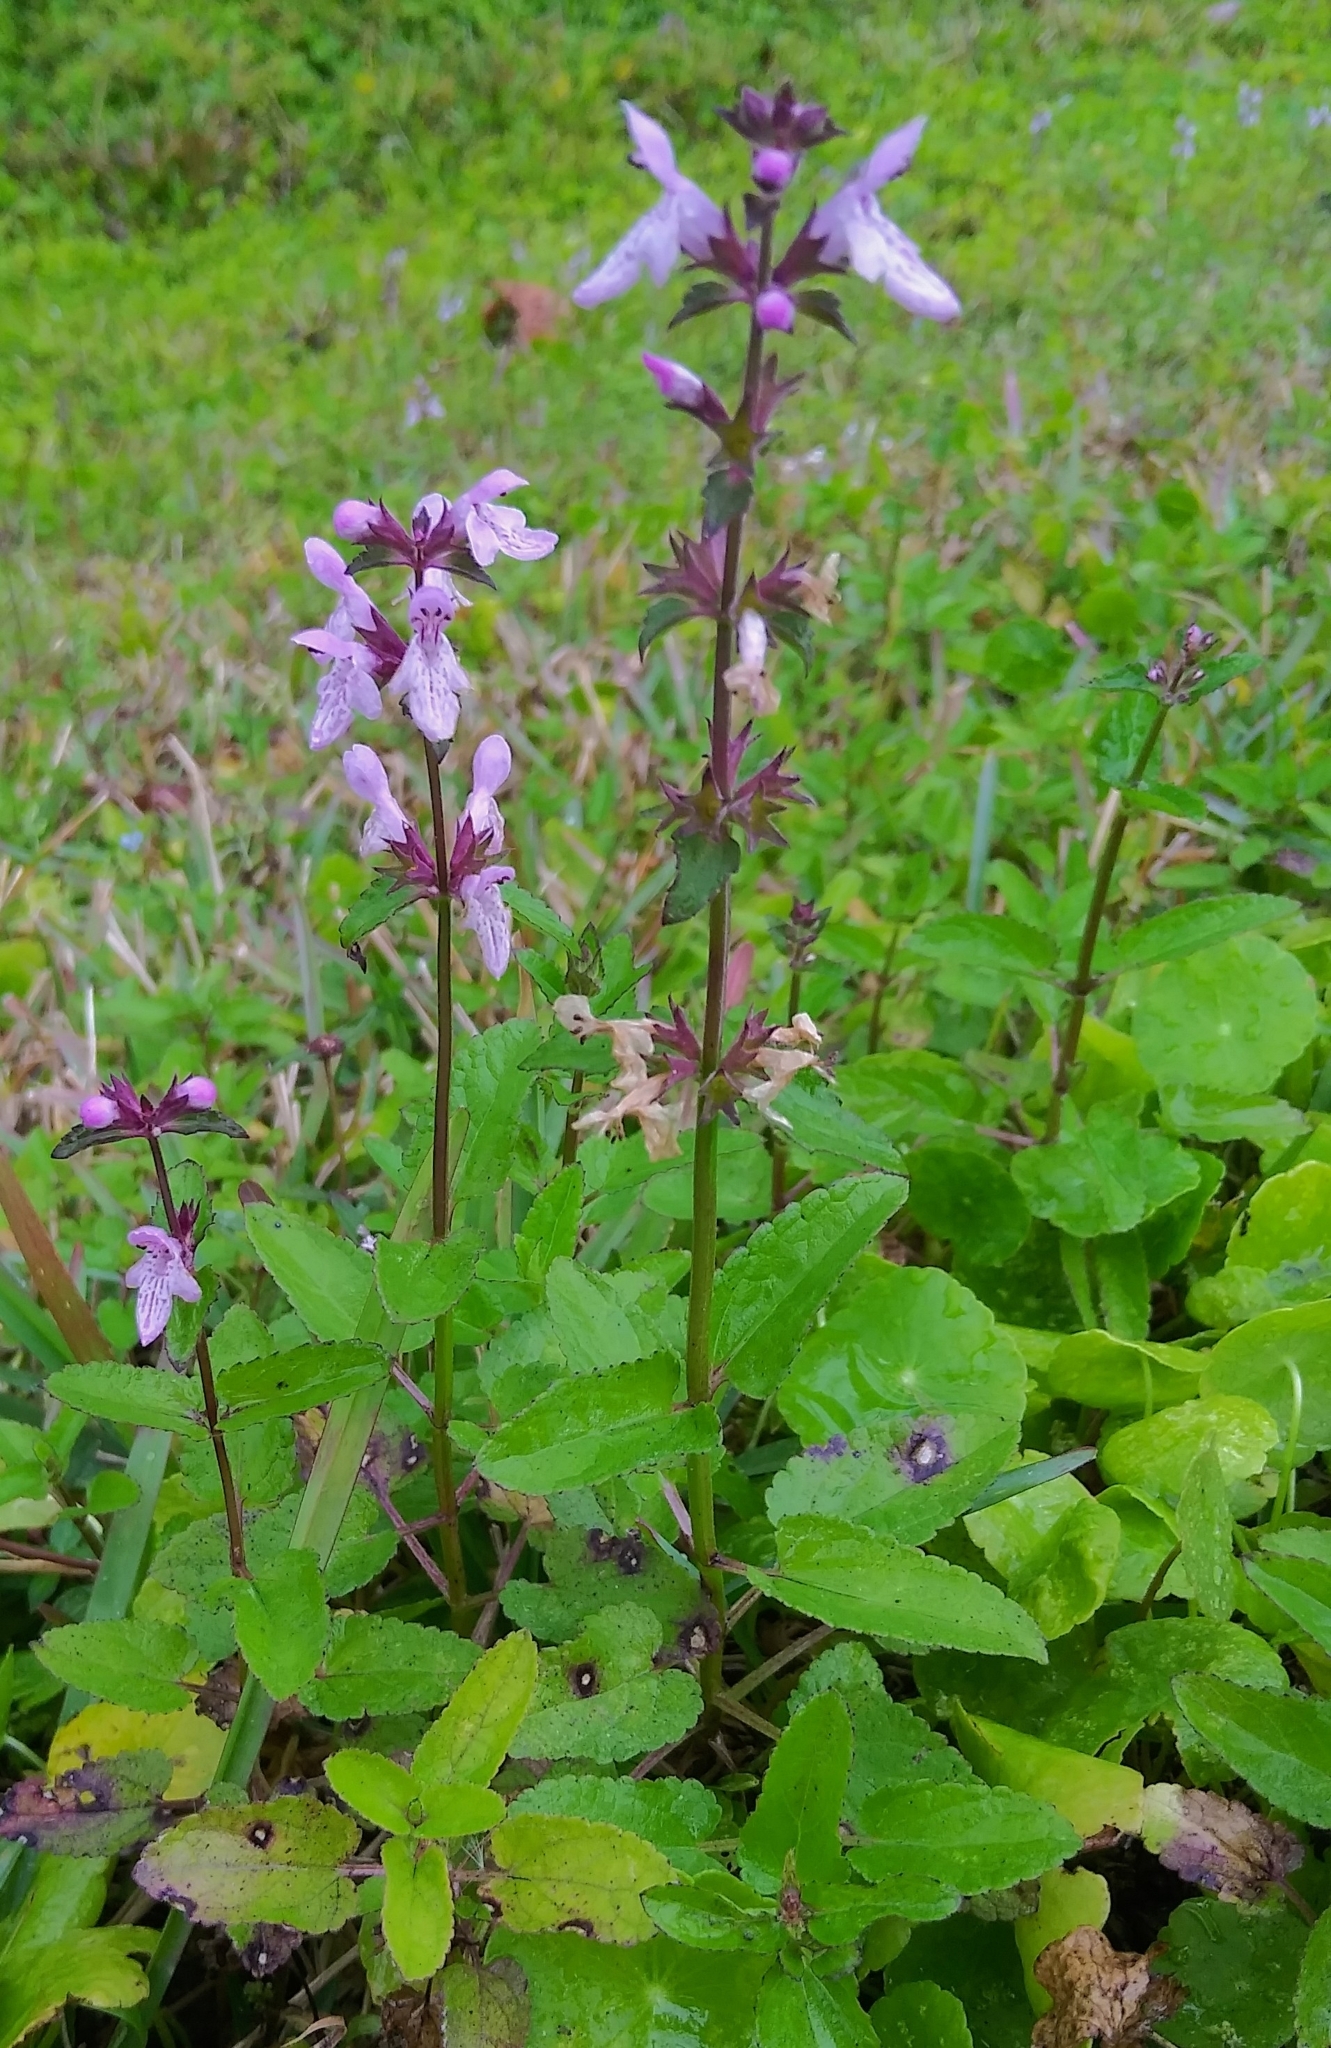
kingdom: Plantae
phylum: Tracheophyta
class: Magnoliopsida
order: Lamiales
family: Lamiaceae
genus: Stachys
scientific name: Stachys floridana
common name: Florida betony
